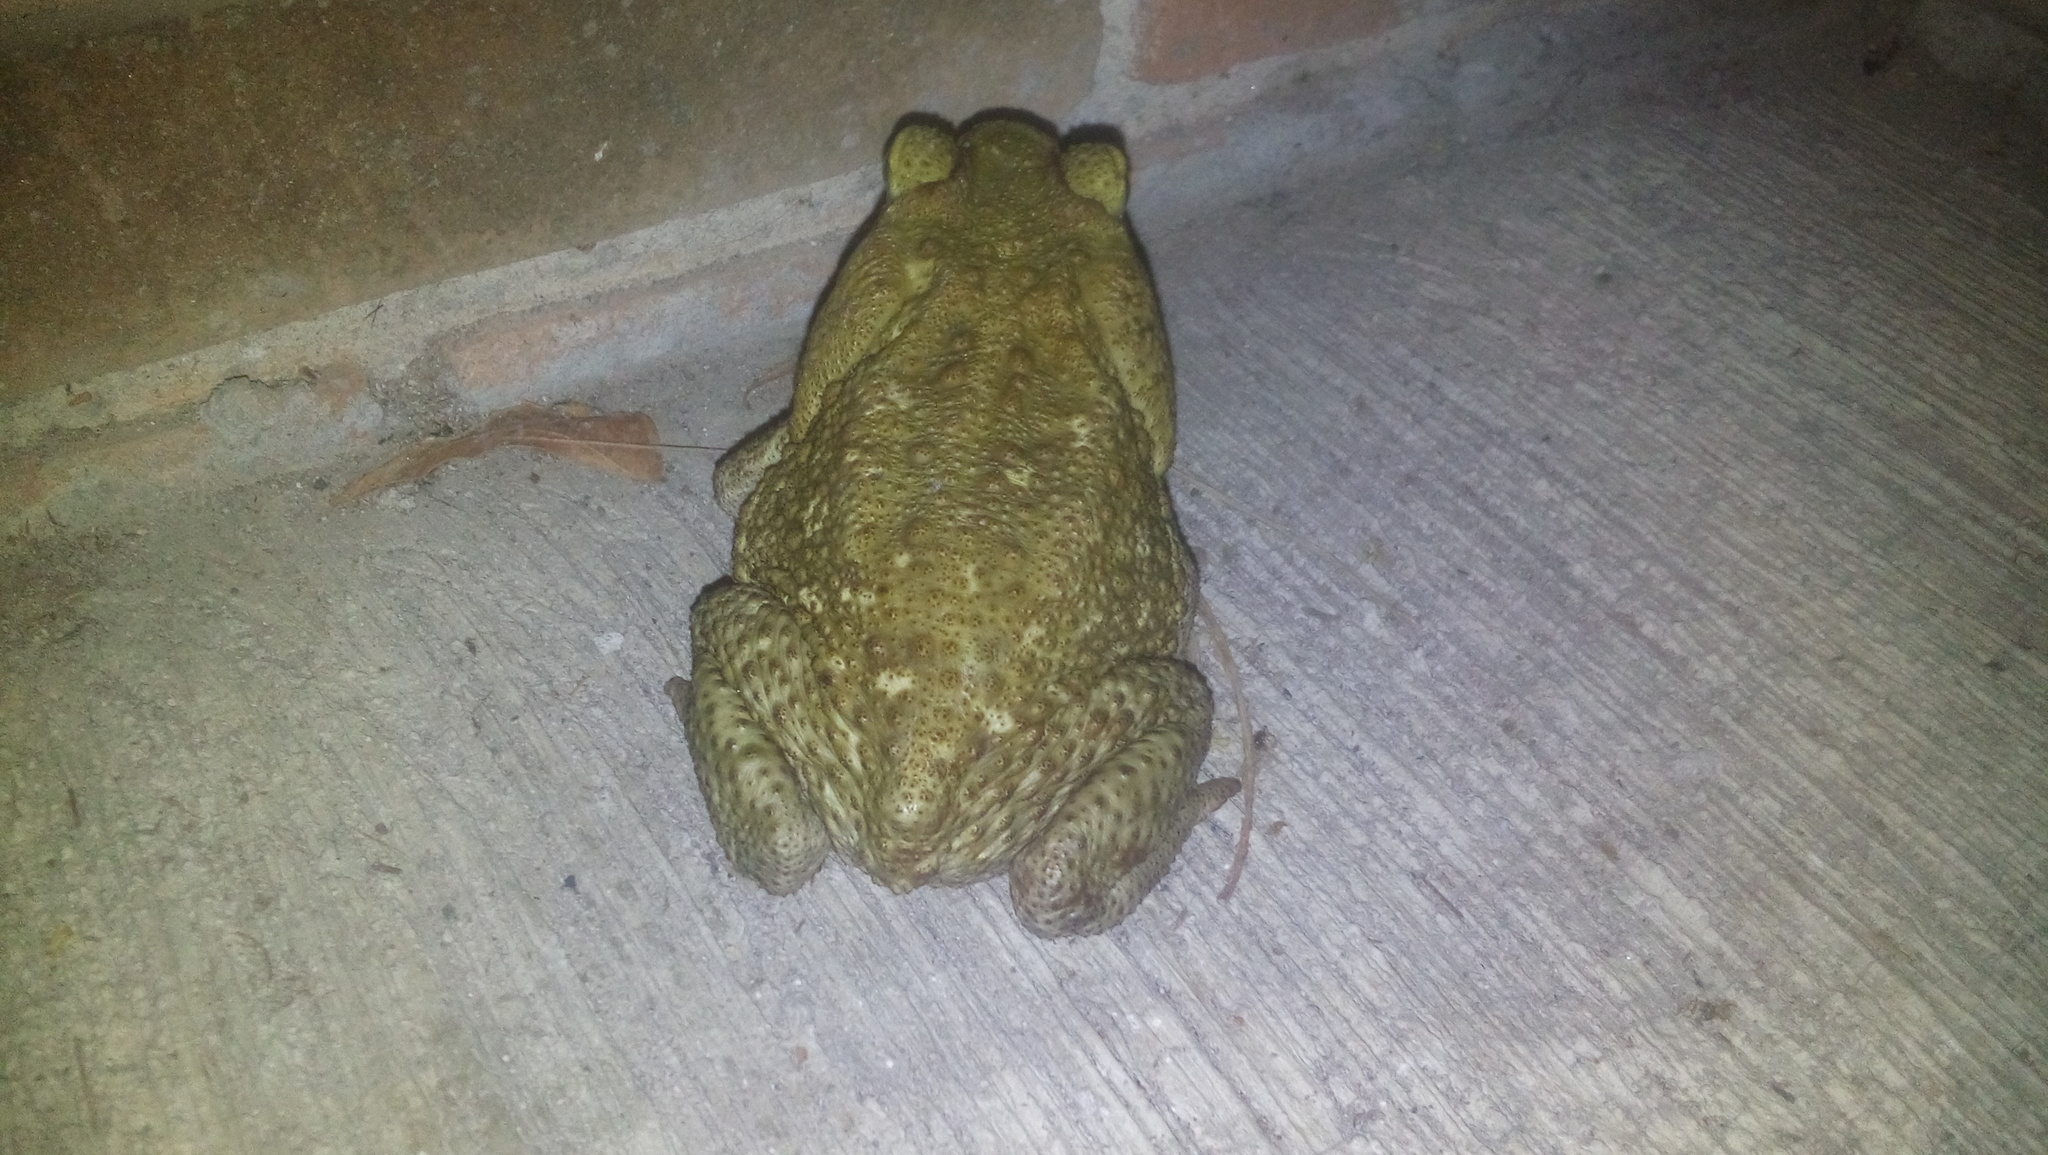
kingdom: Animalia
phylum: Chordata
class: Amphibia
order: Anura
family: Bufonidae
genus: Rhinella
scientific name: Rhinella horribilis
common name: Mesoamerican cane toad
